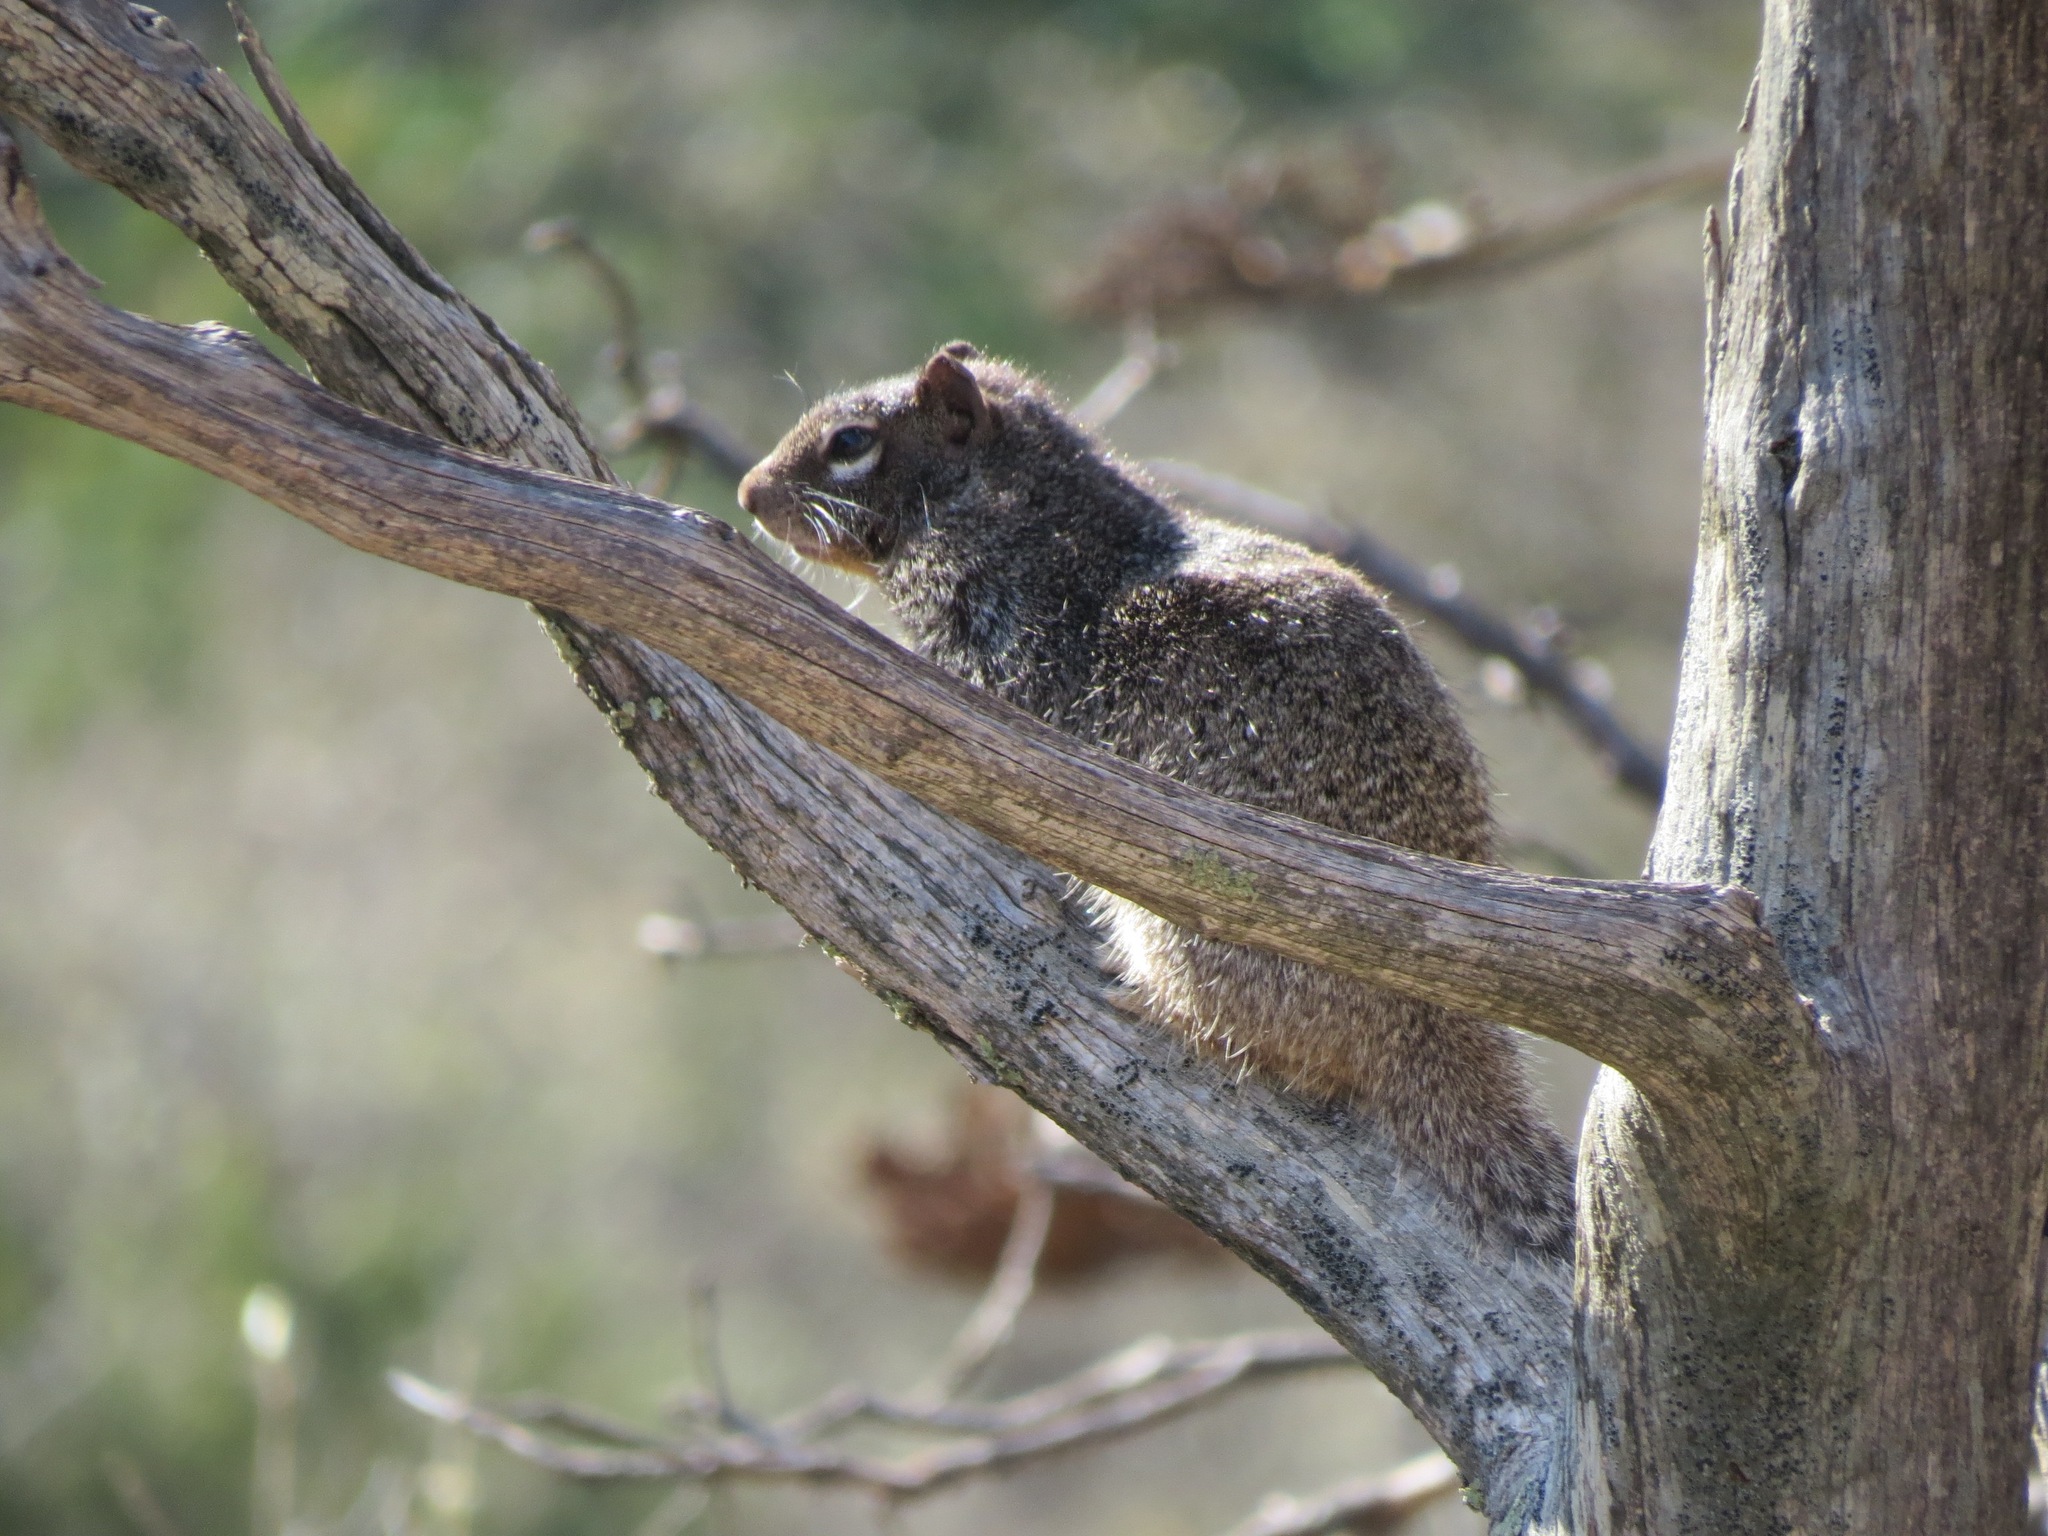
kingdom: Animalia
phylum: Chordata
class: Mammalia
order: Rodentia
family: Sciuridae
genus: Otospermophilus
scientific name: Otospermophilus variegatus
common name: Rock squirrel
